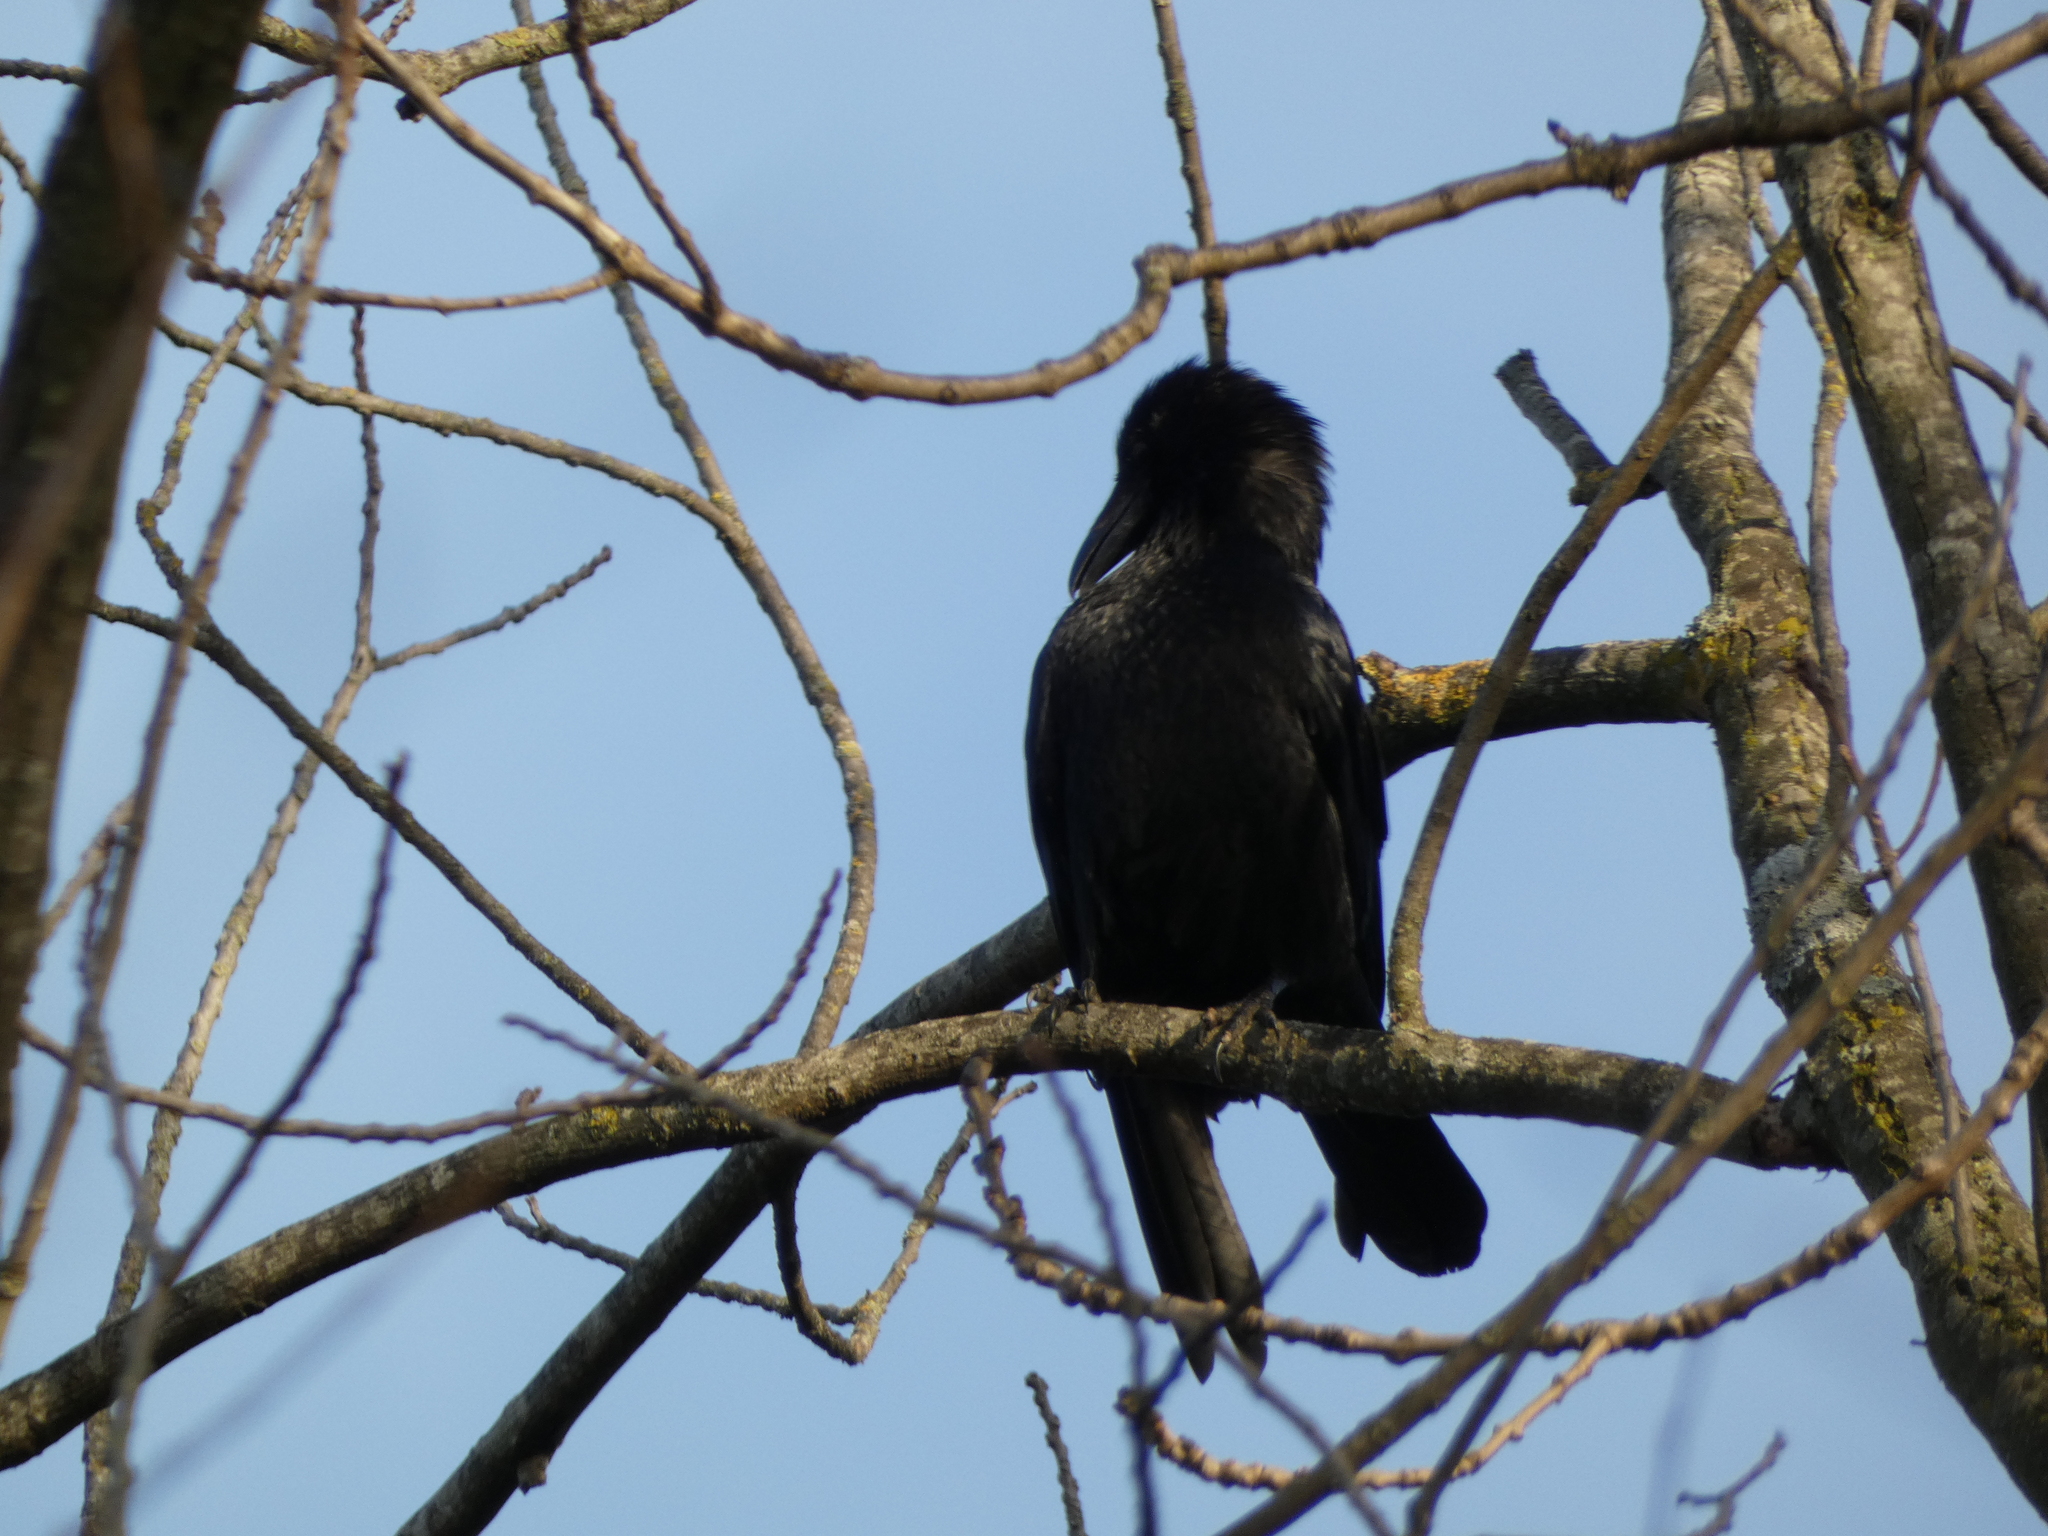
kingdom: Animalia
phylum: Chordata
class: Aves
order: Passeriformes
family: Corvidae
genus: Corvus
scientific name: Corvus corone
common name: Carrion crow
